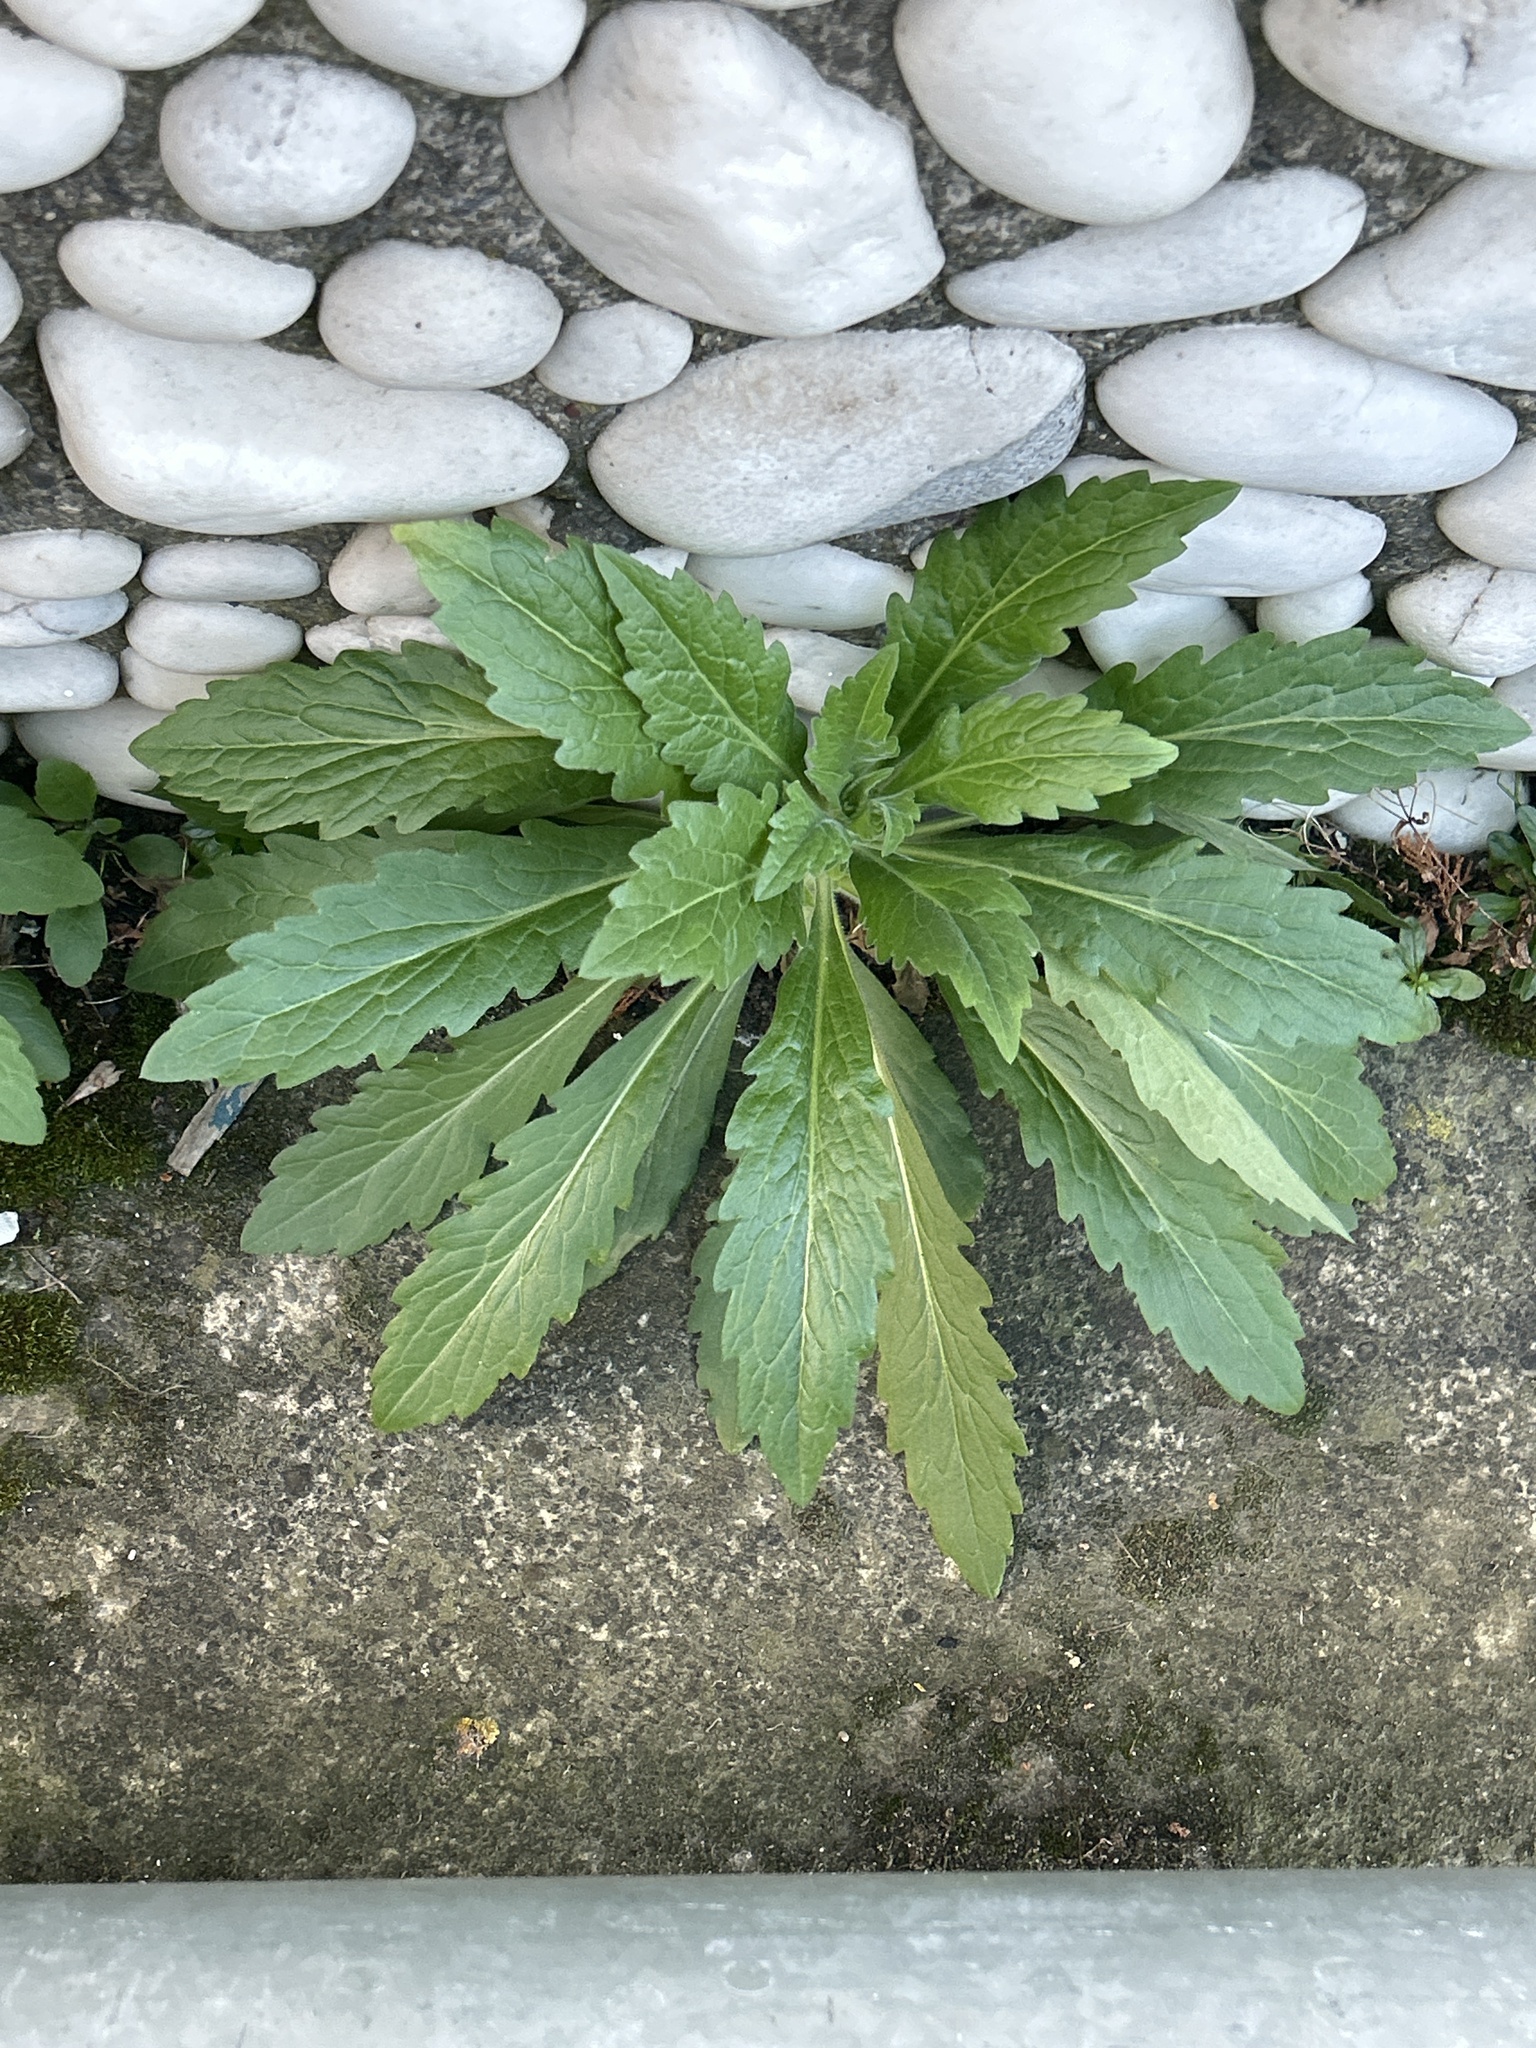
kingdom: Plantae
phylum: Tracheophyta
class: Magnoliopsida
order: Asterales
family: Asteraceae
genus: Erigeron
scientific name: Erigeron sumatrensis
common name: Daisy
